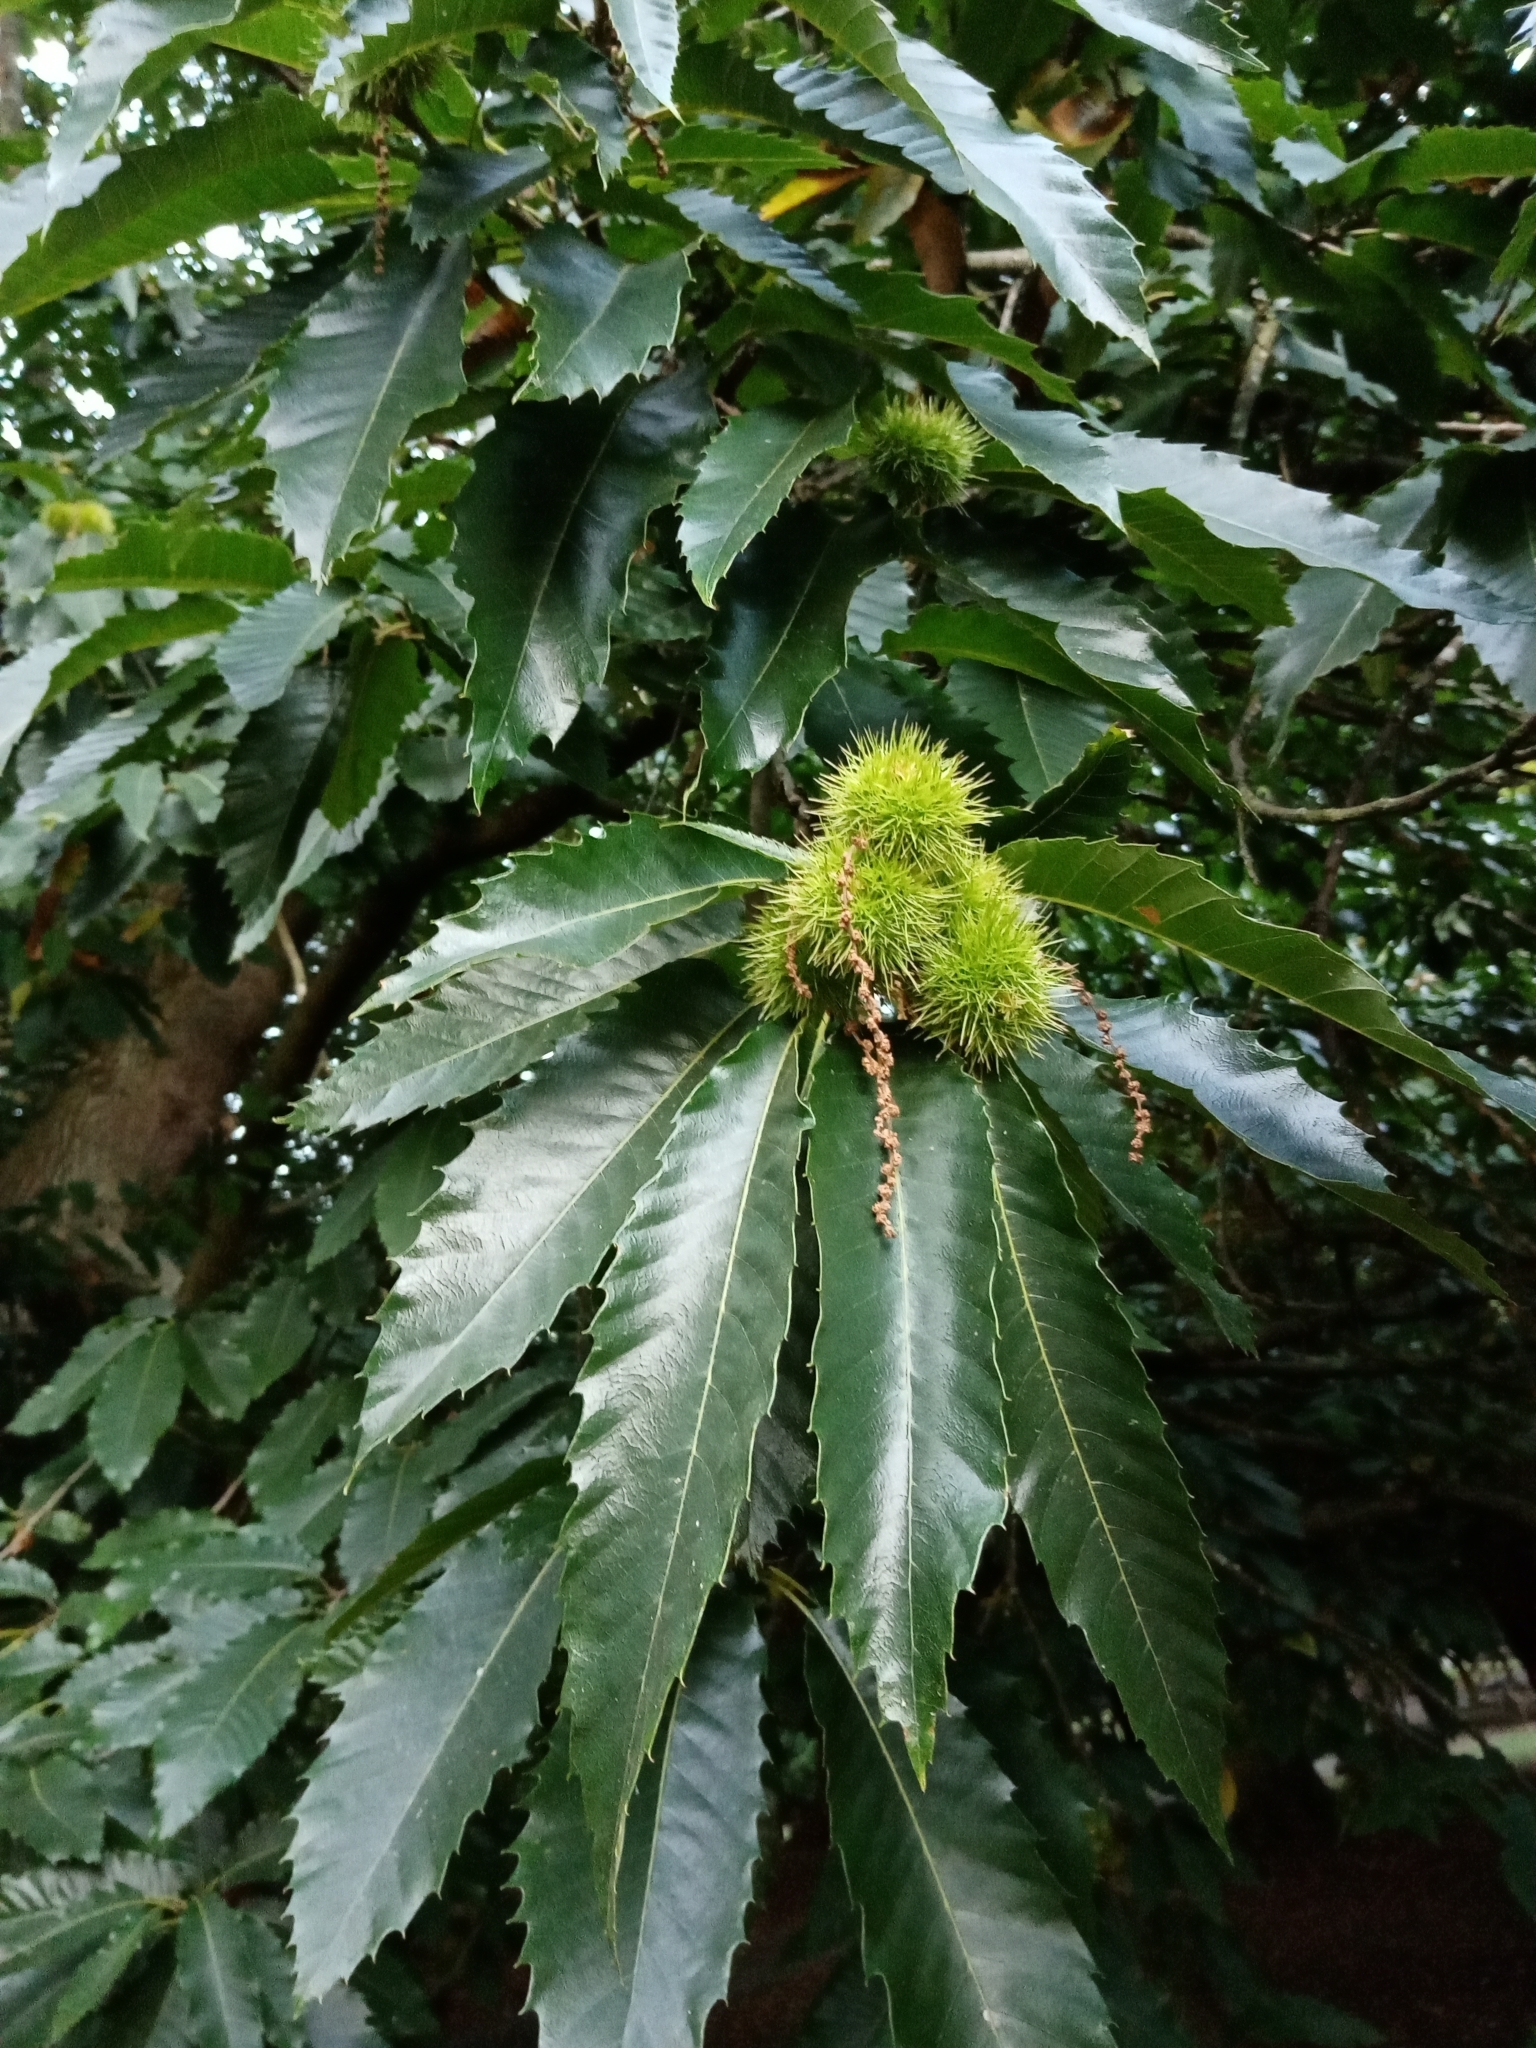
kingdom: Plantae
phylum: Tracheophyta
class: Magnoliopsida
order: Fagales
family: Fagaceae
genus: Castanea
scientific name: Castanea sativa
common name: Sweet chestnut
